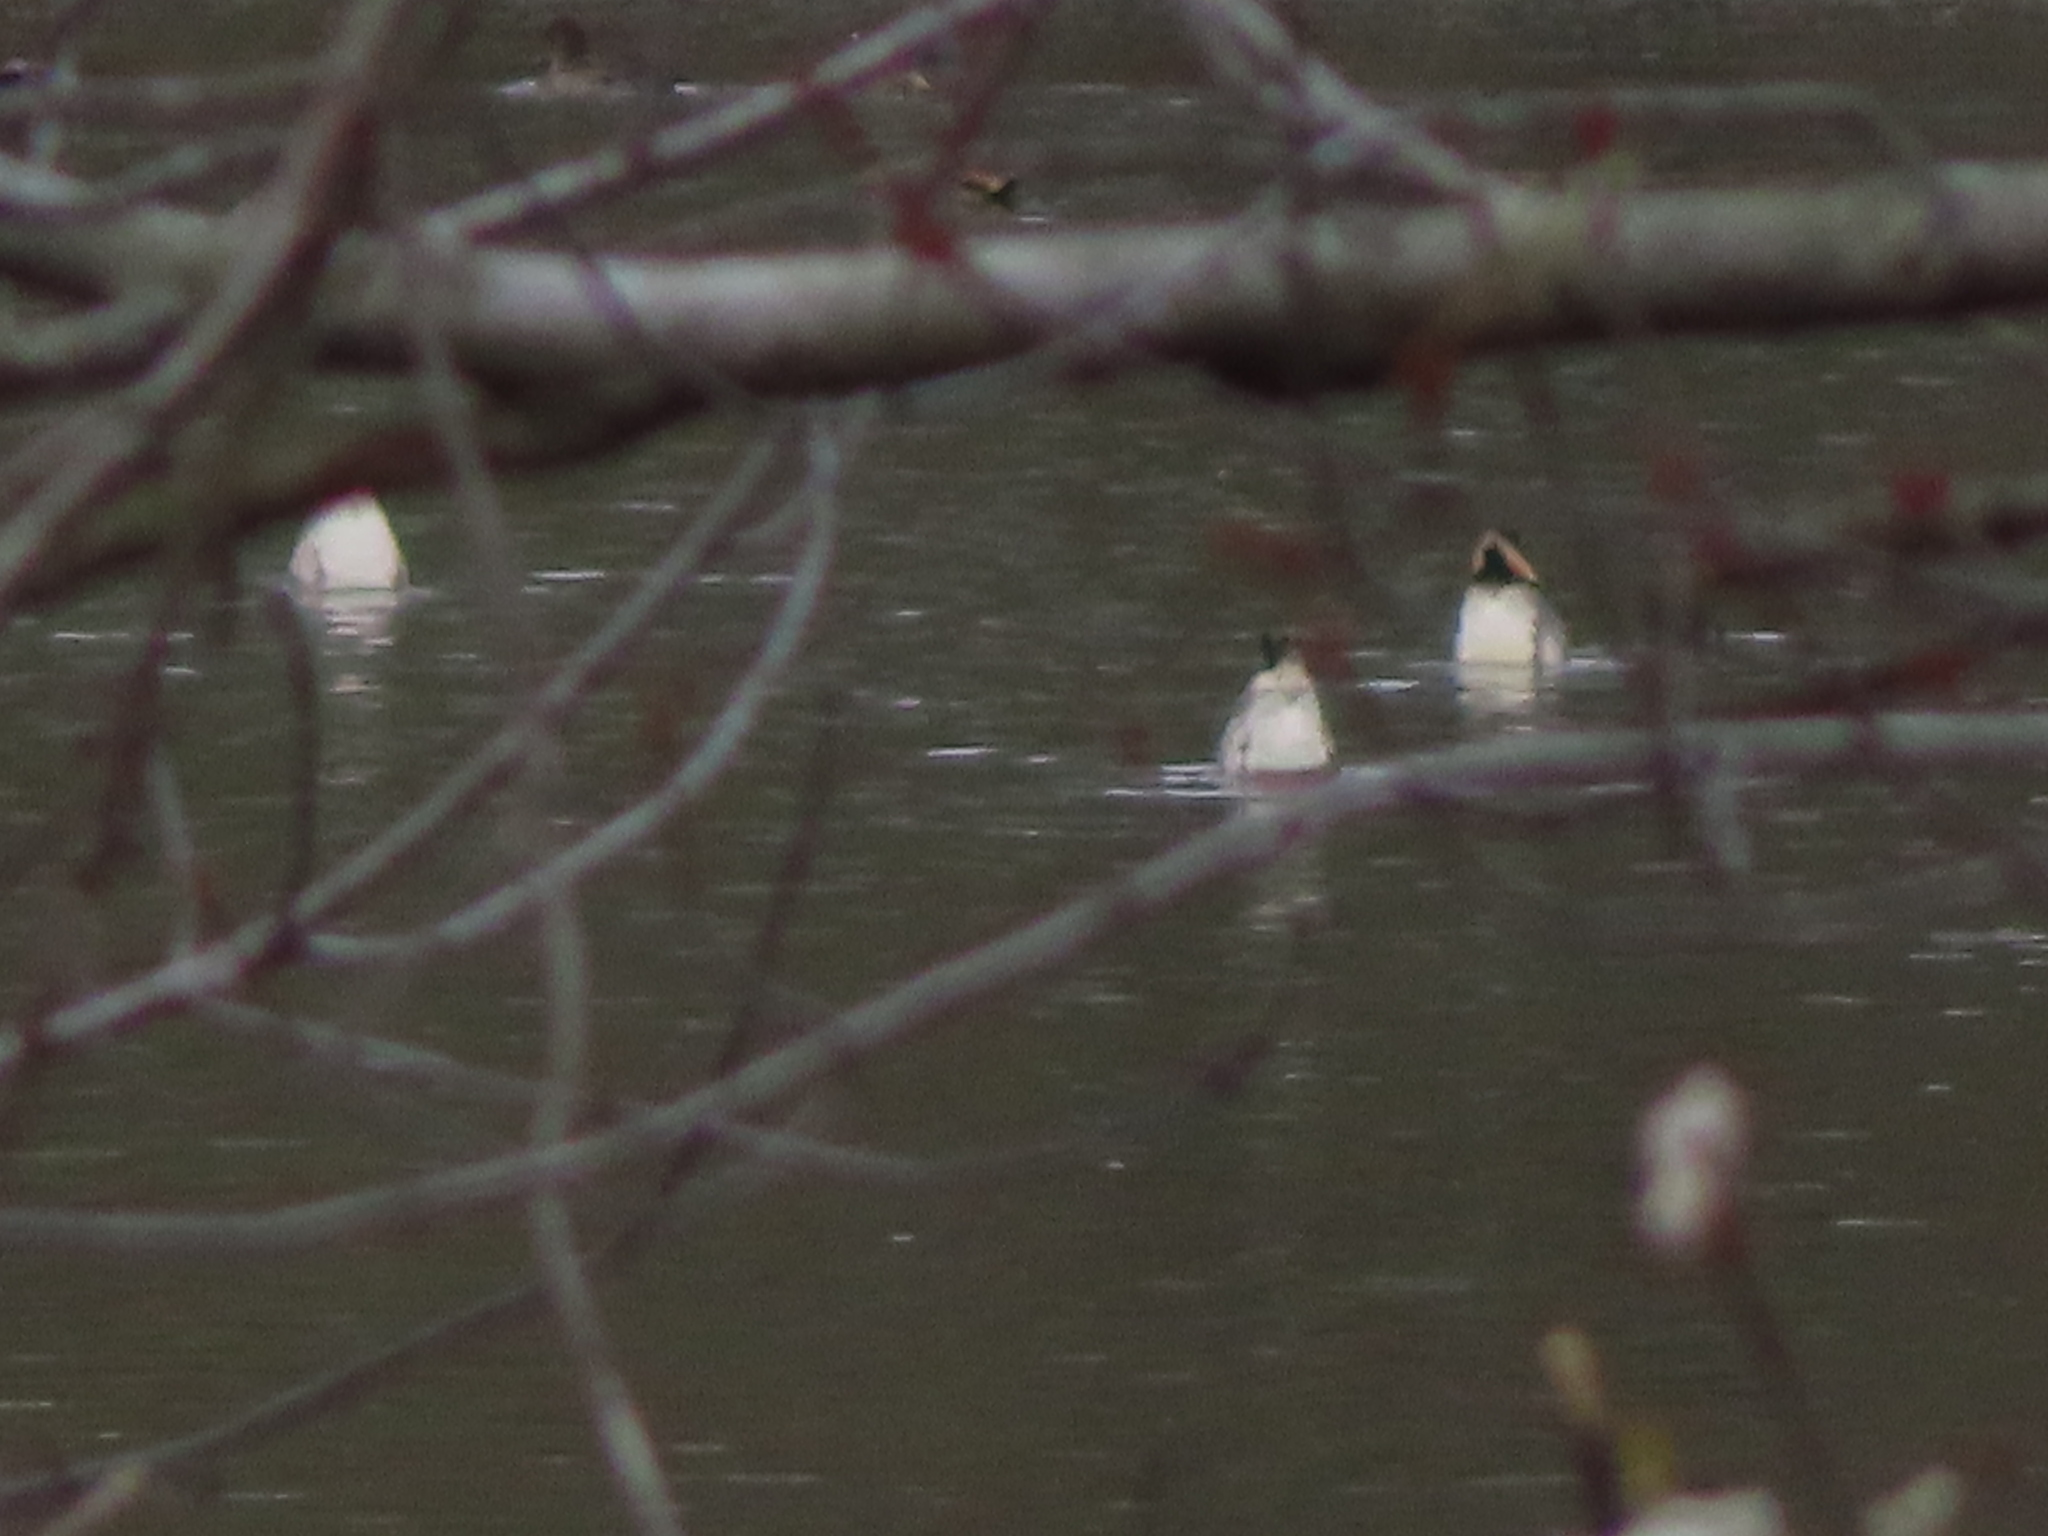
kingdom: Animalia
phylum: Chordata
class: Aves
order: Anseriformes
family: Anatidae
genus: Aythya
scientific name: Aythya valisineria
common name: Canvasback
